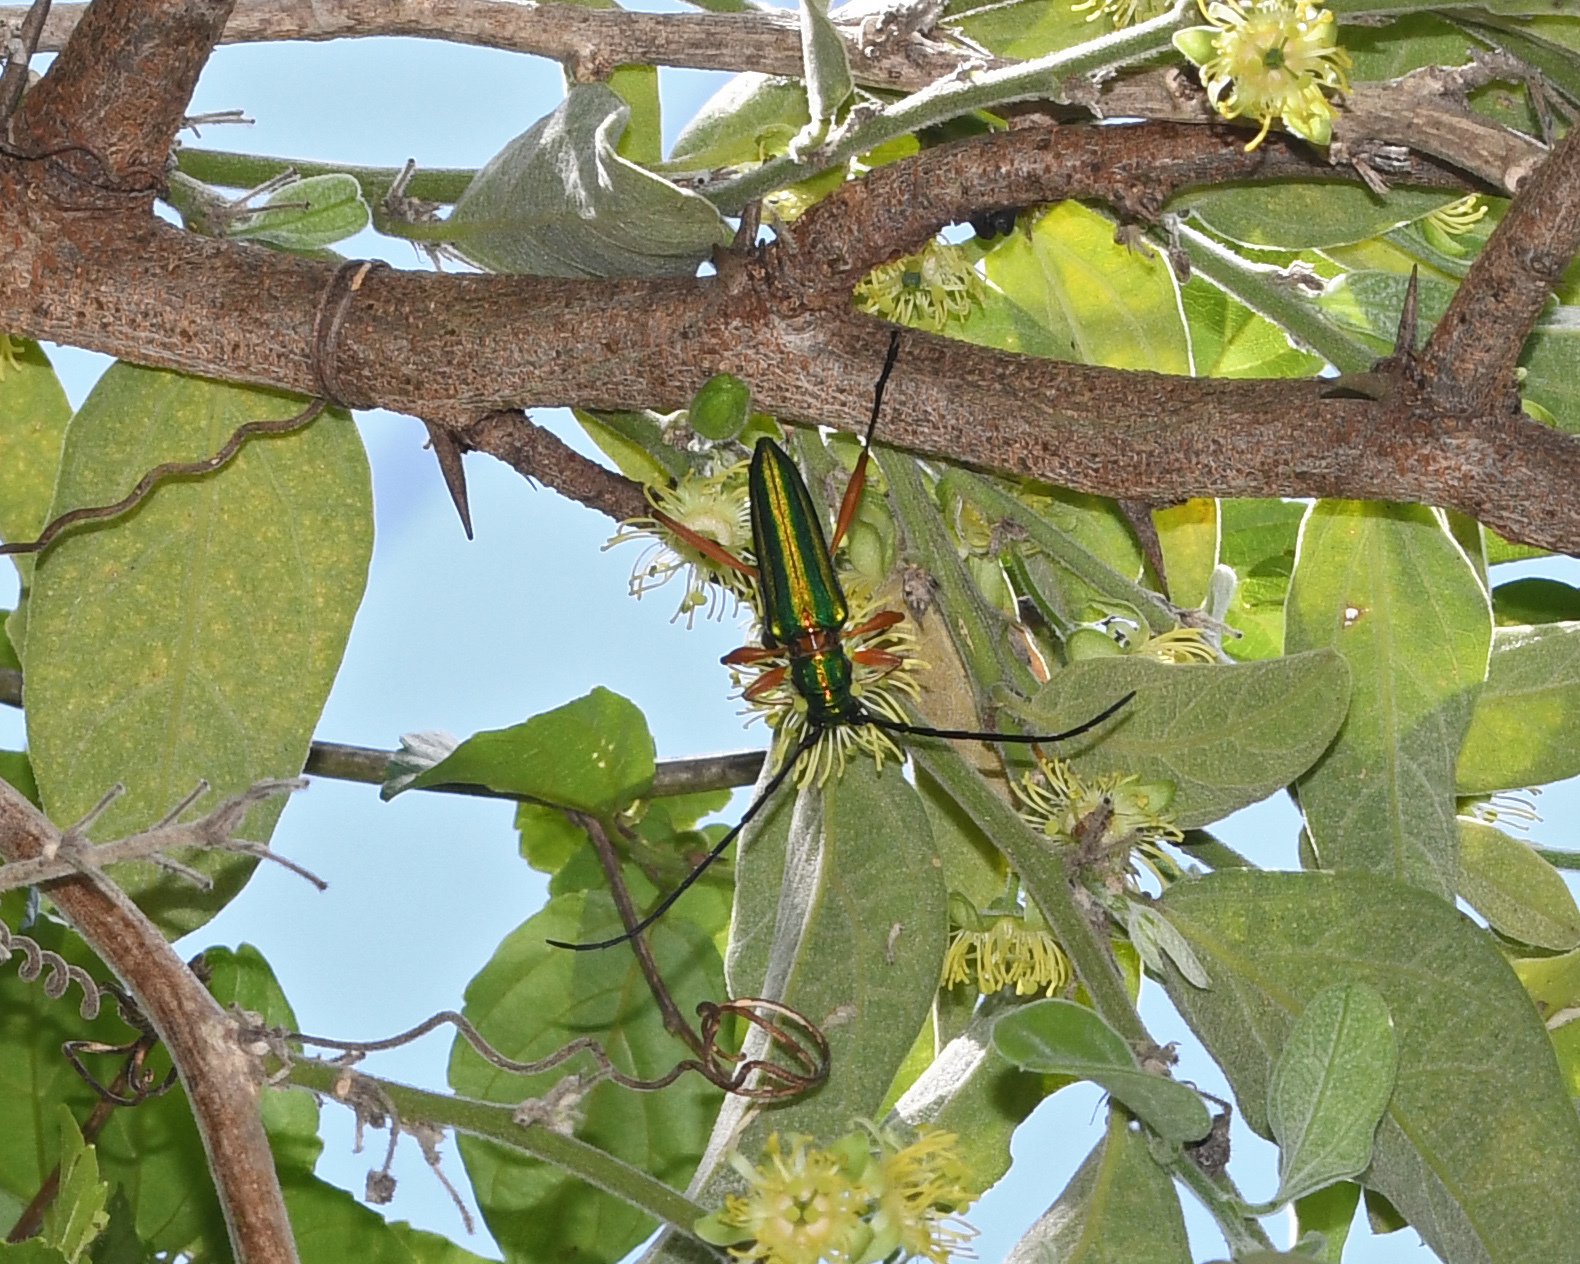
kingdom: Animalia
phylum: Arthropoda
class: Insecta
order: Coleoptera
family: Cerambycidae
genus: Mionochroma
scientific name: Mionochroma vittatum
